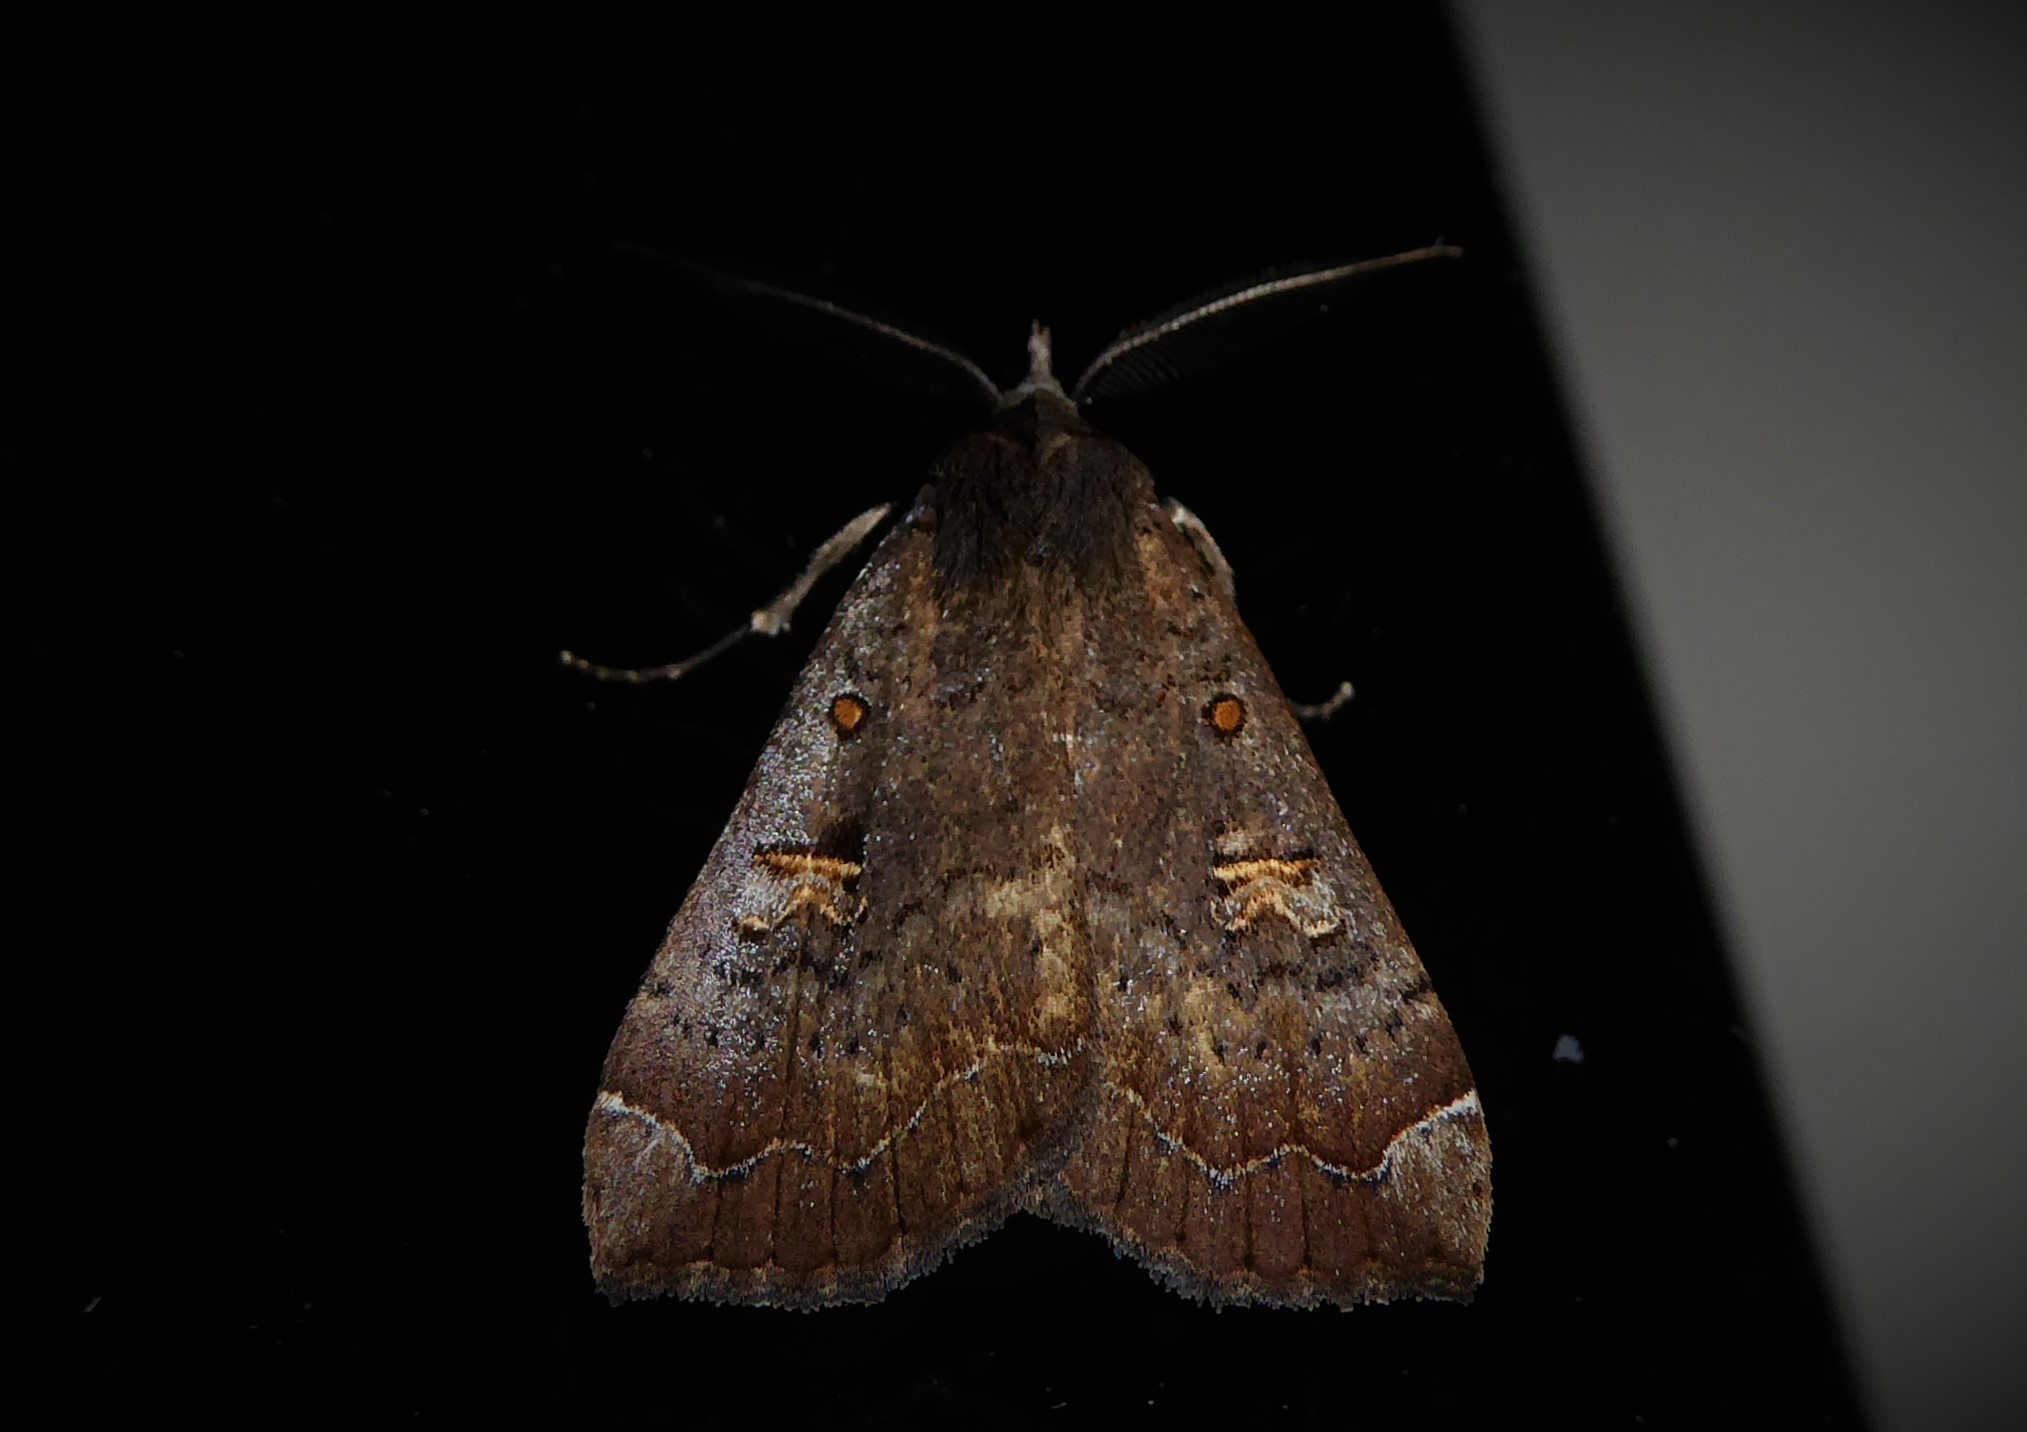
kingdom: Animalia
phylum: Arthropoda
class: Insecta
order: Lepidoptera
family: Erebidae
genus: Rhapsa
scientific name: Rhapsa scotosialis
